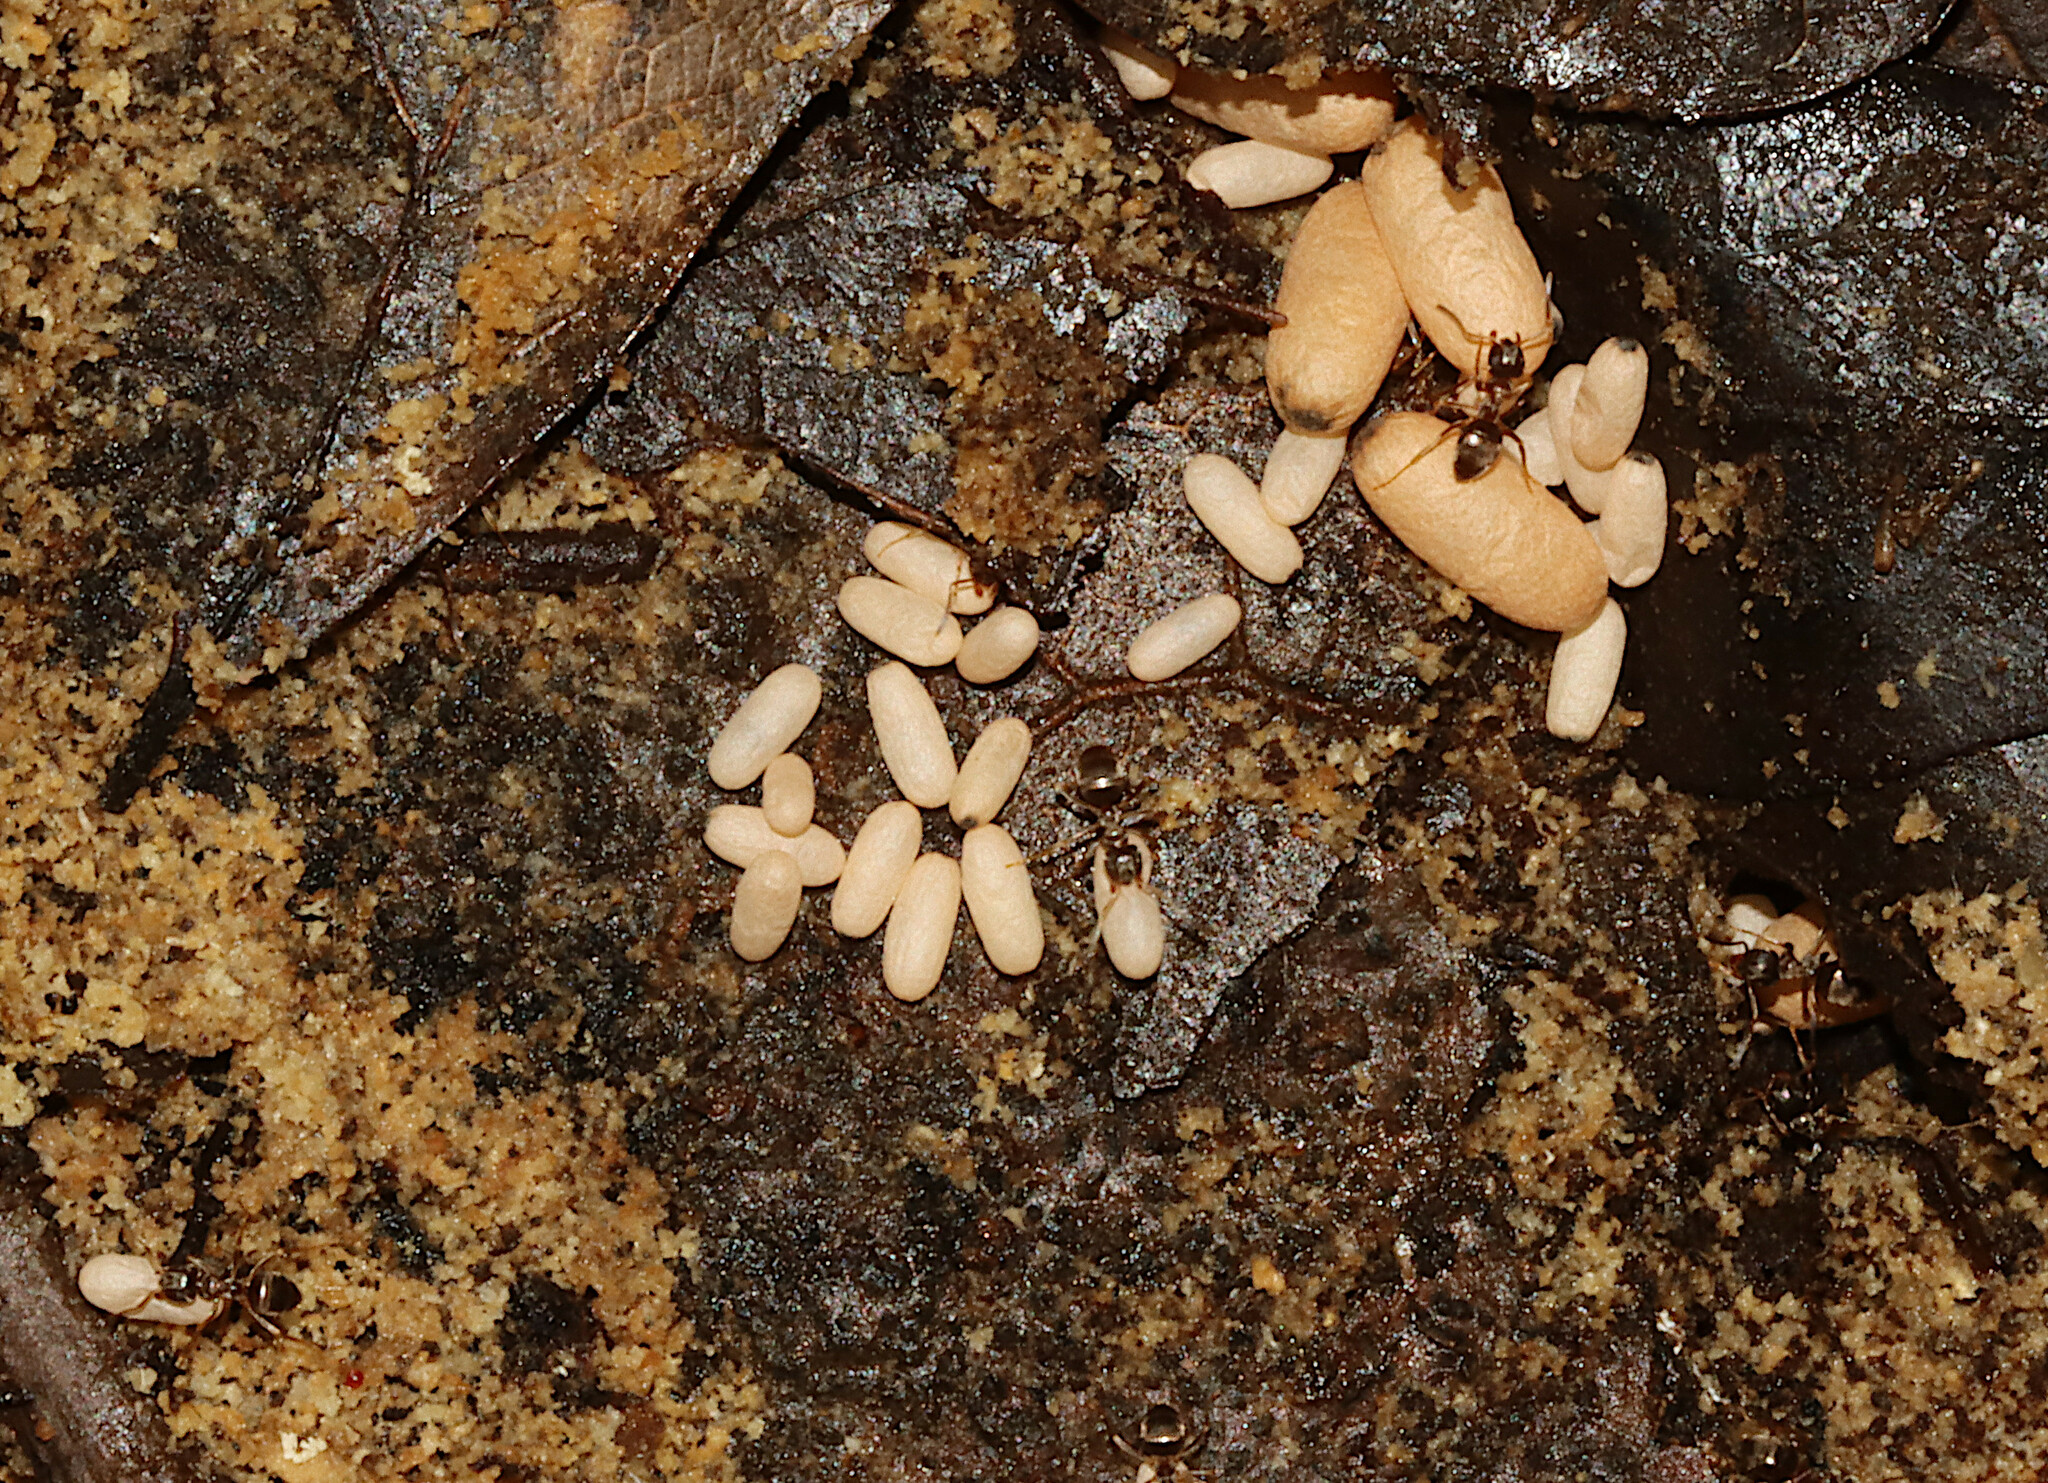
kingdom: Animalia
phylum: Arthropoda
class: Insecta
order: Hymenoptera
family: Formicidae
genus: Lasius
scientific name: Lasius americanus
